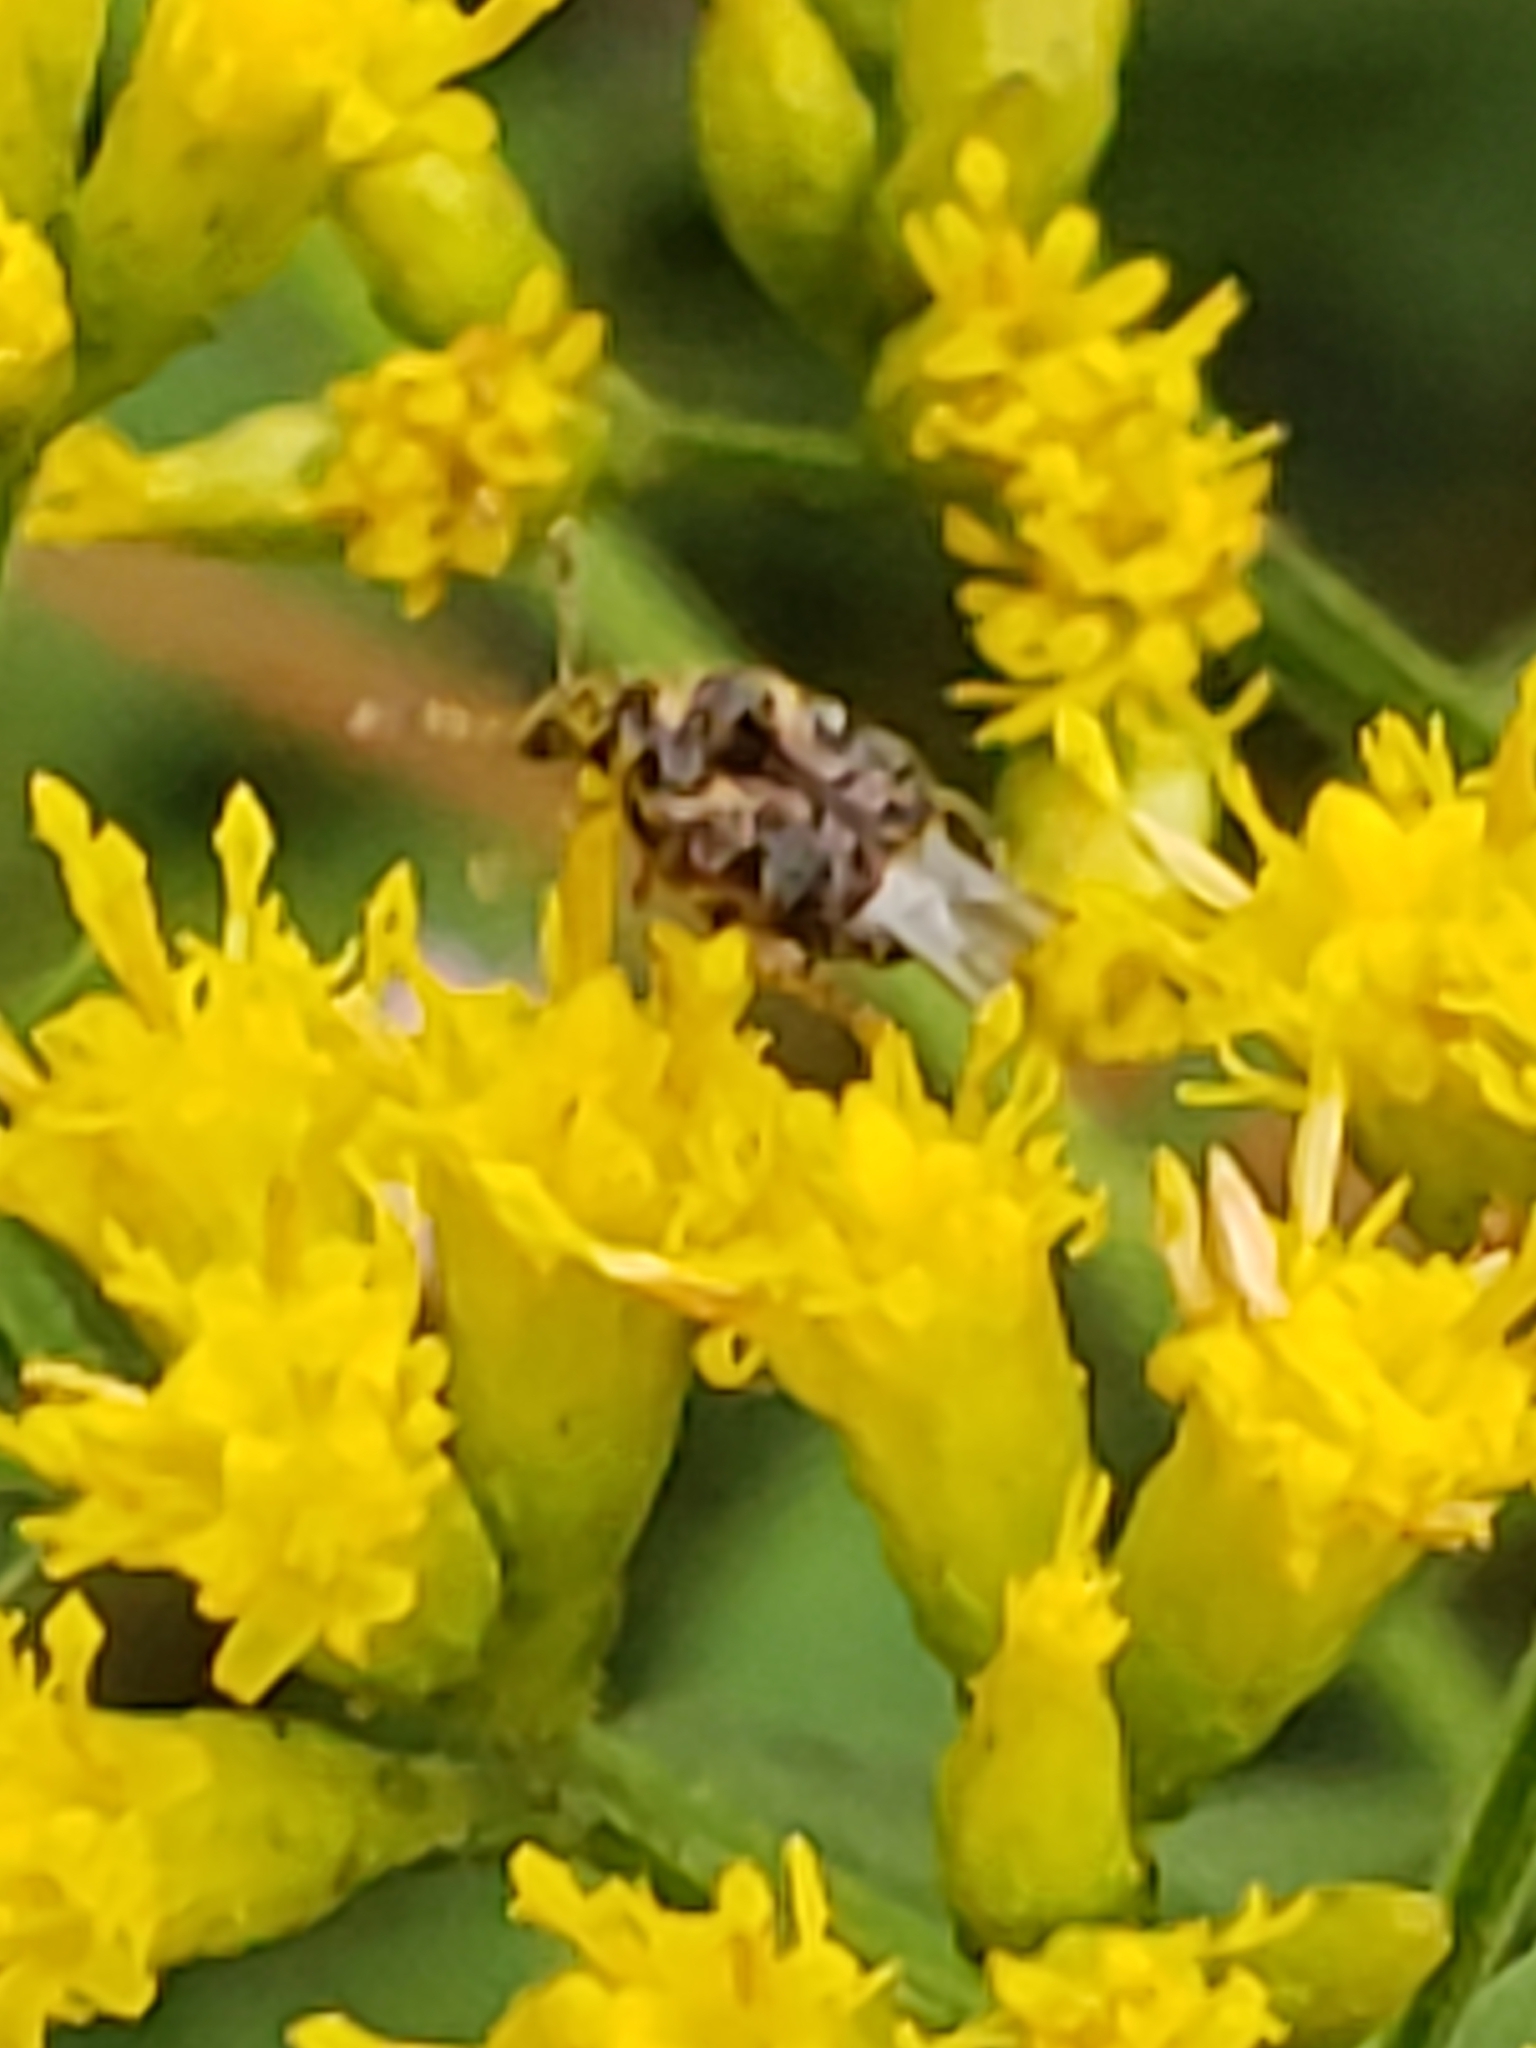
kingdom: Animalia
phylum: Arthropoda
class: Insecta
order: Coleoptera
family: Chrysomelidae
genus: Gibbobruchus
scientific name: Gibbobruchus mimus
